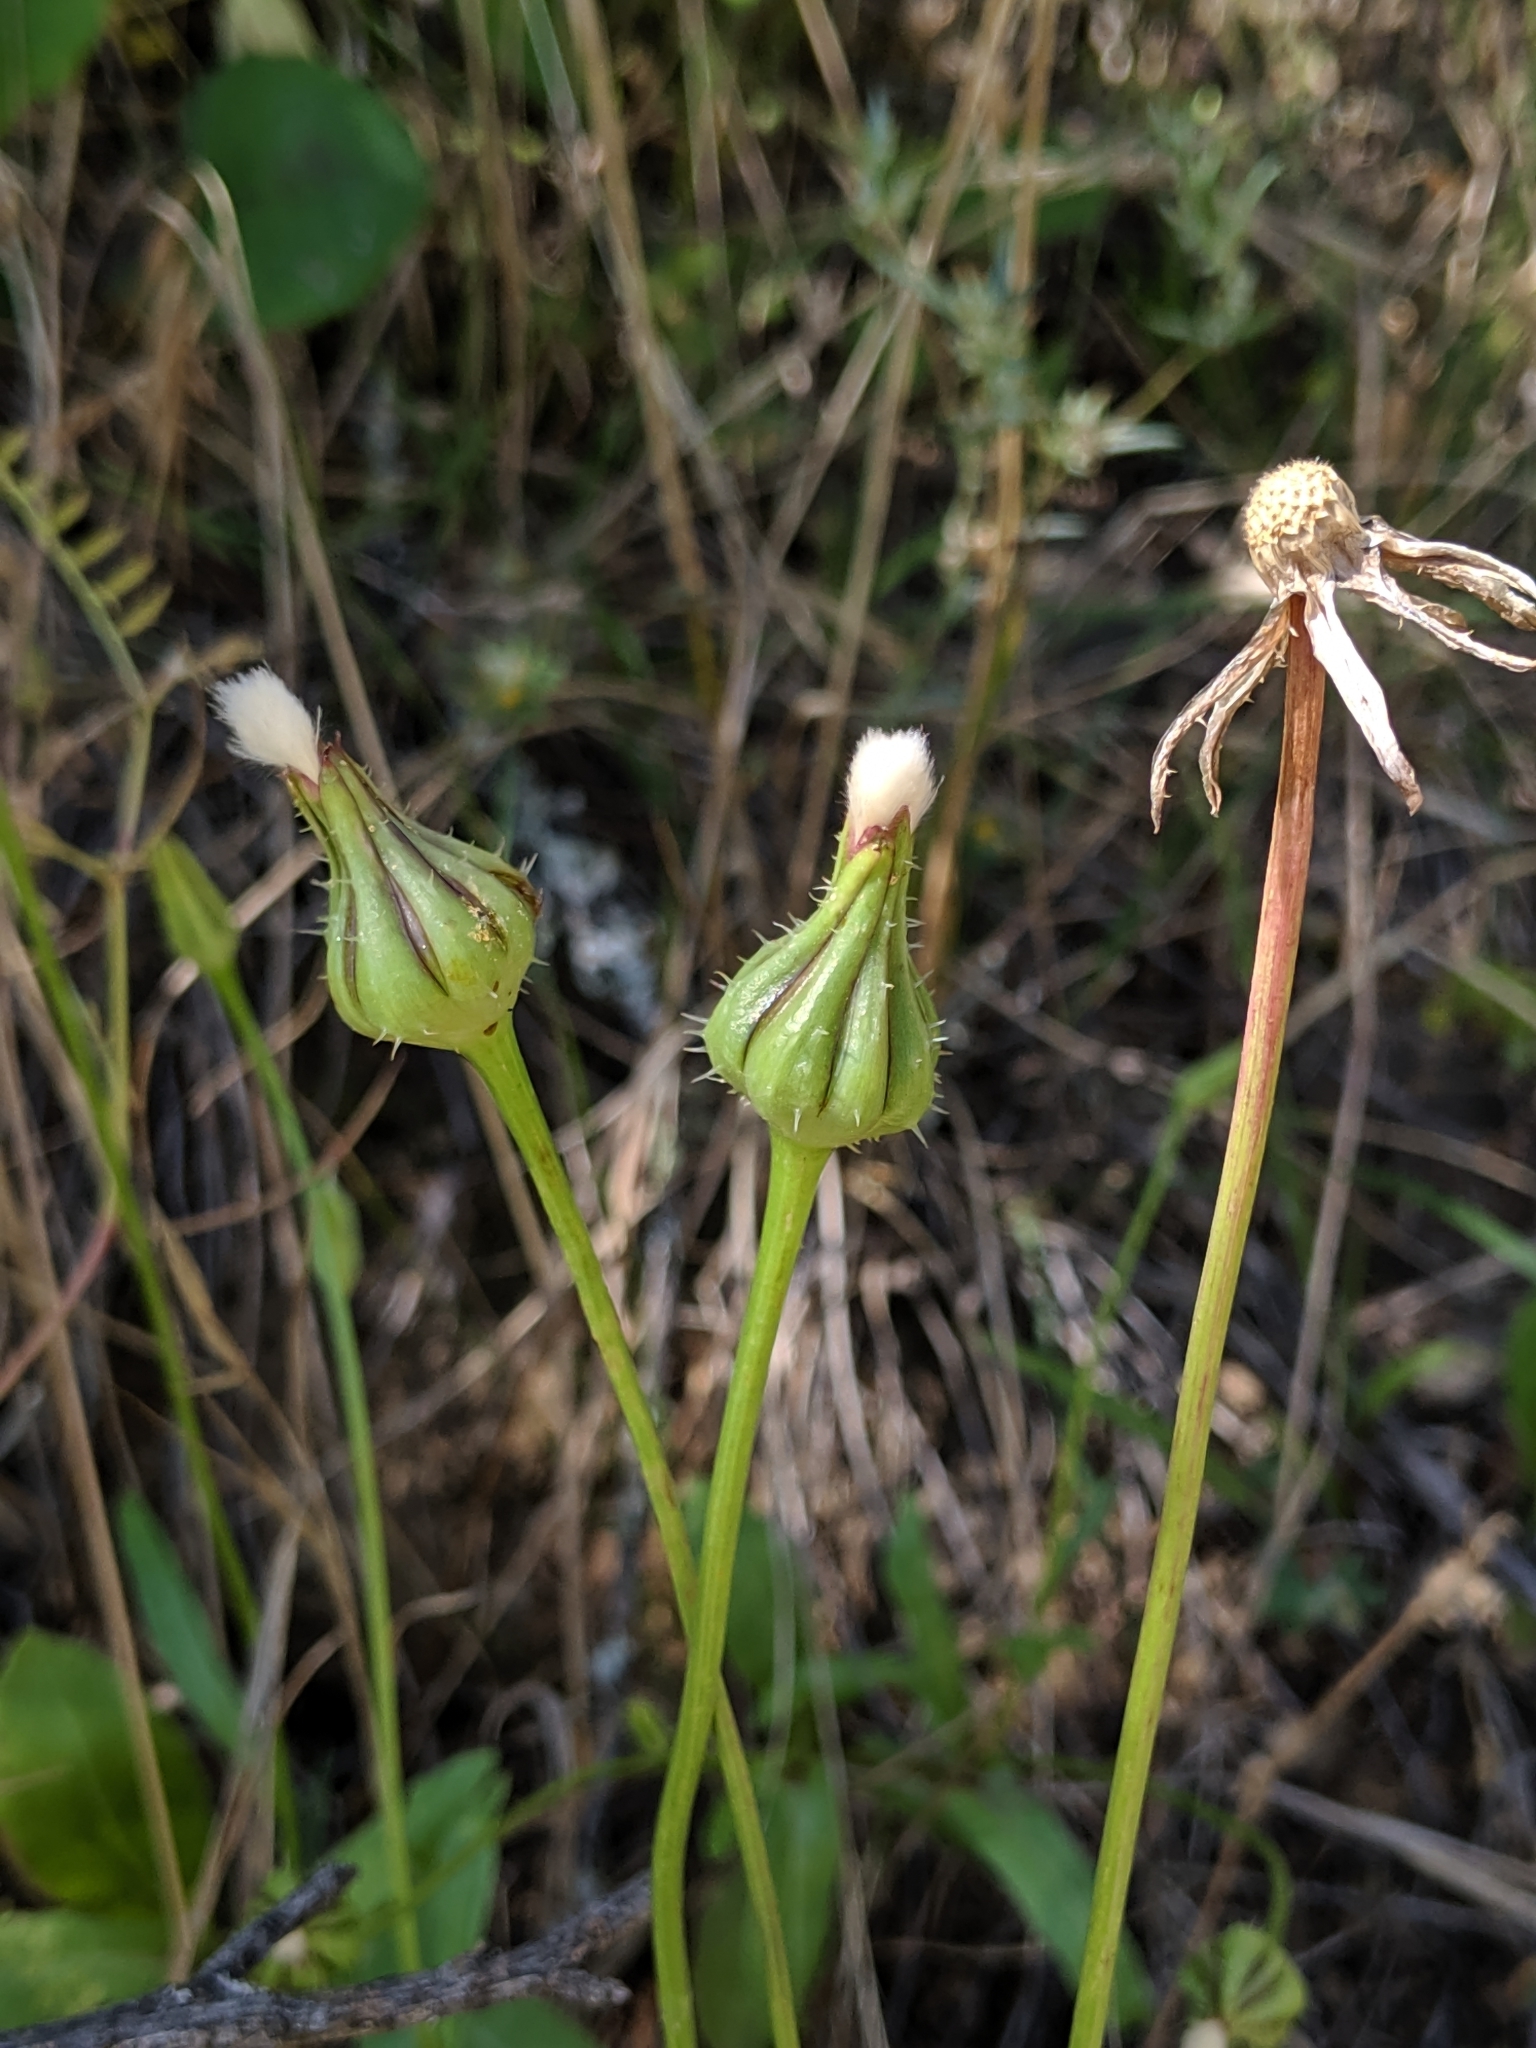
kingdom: Plantae
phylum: Tracheophyta
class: Magnoliopsida
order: Asterales
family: Asteraceae
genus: Urospermum
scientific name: Urospermum picroides
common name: False hawkbit
